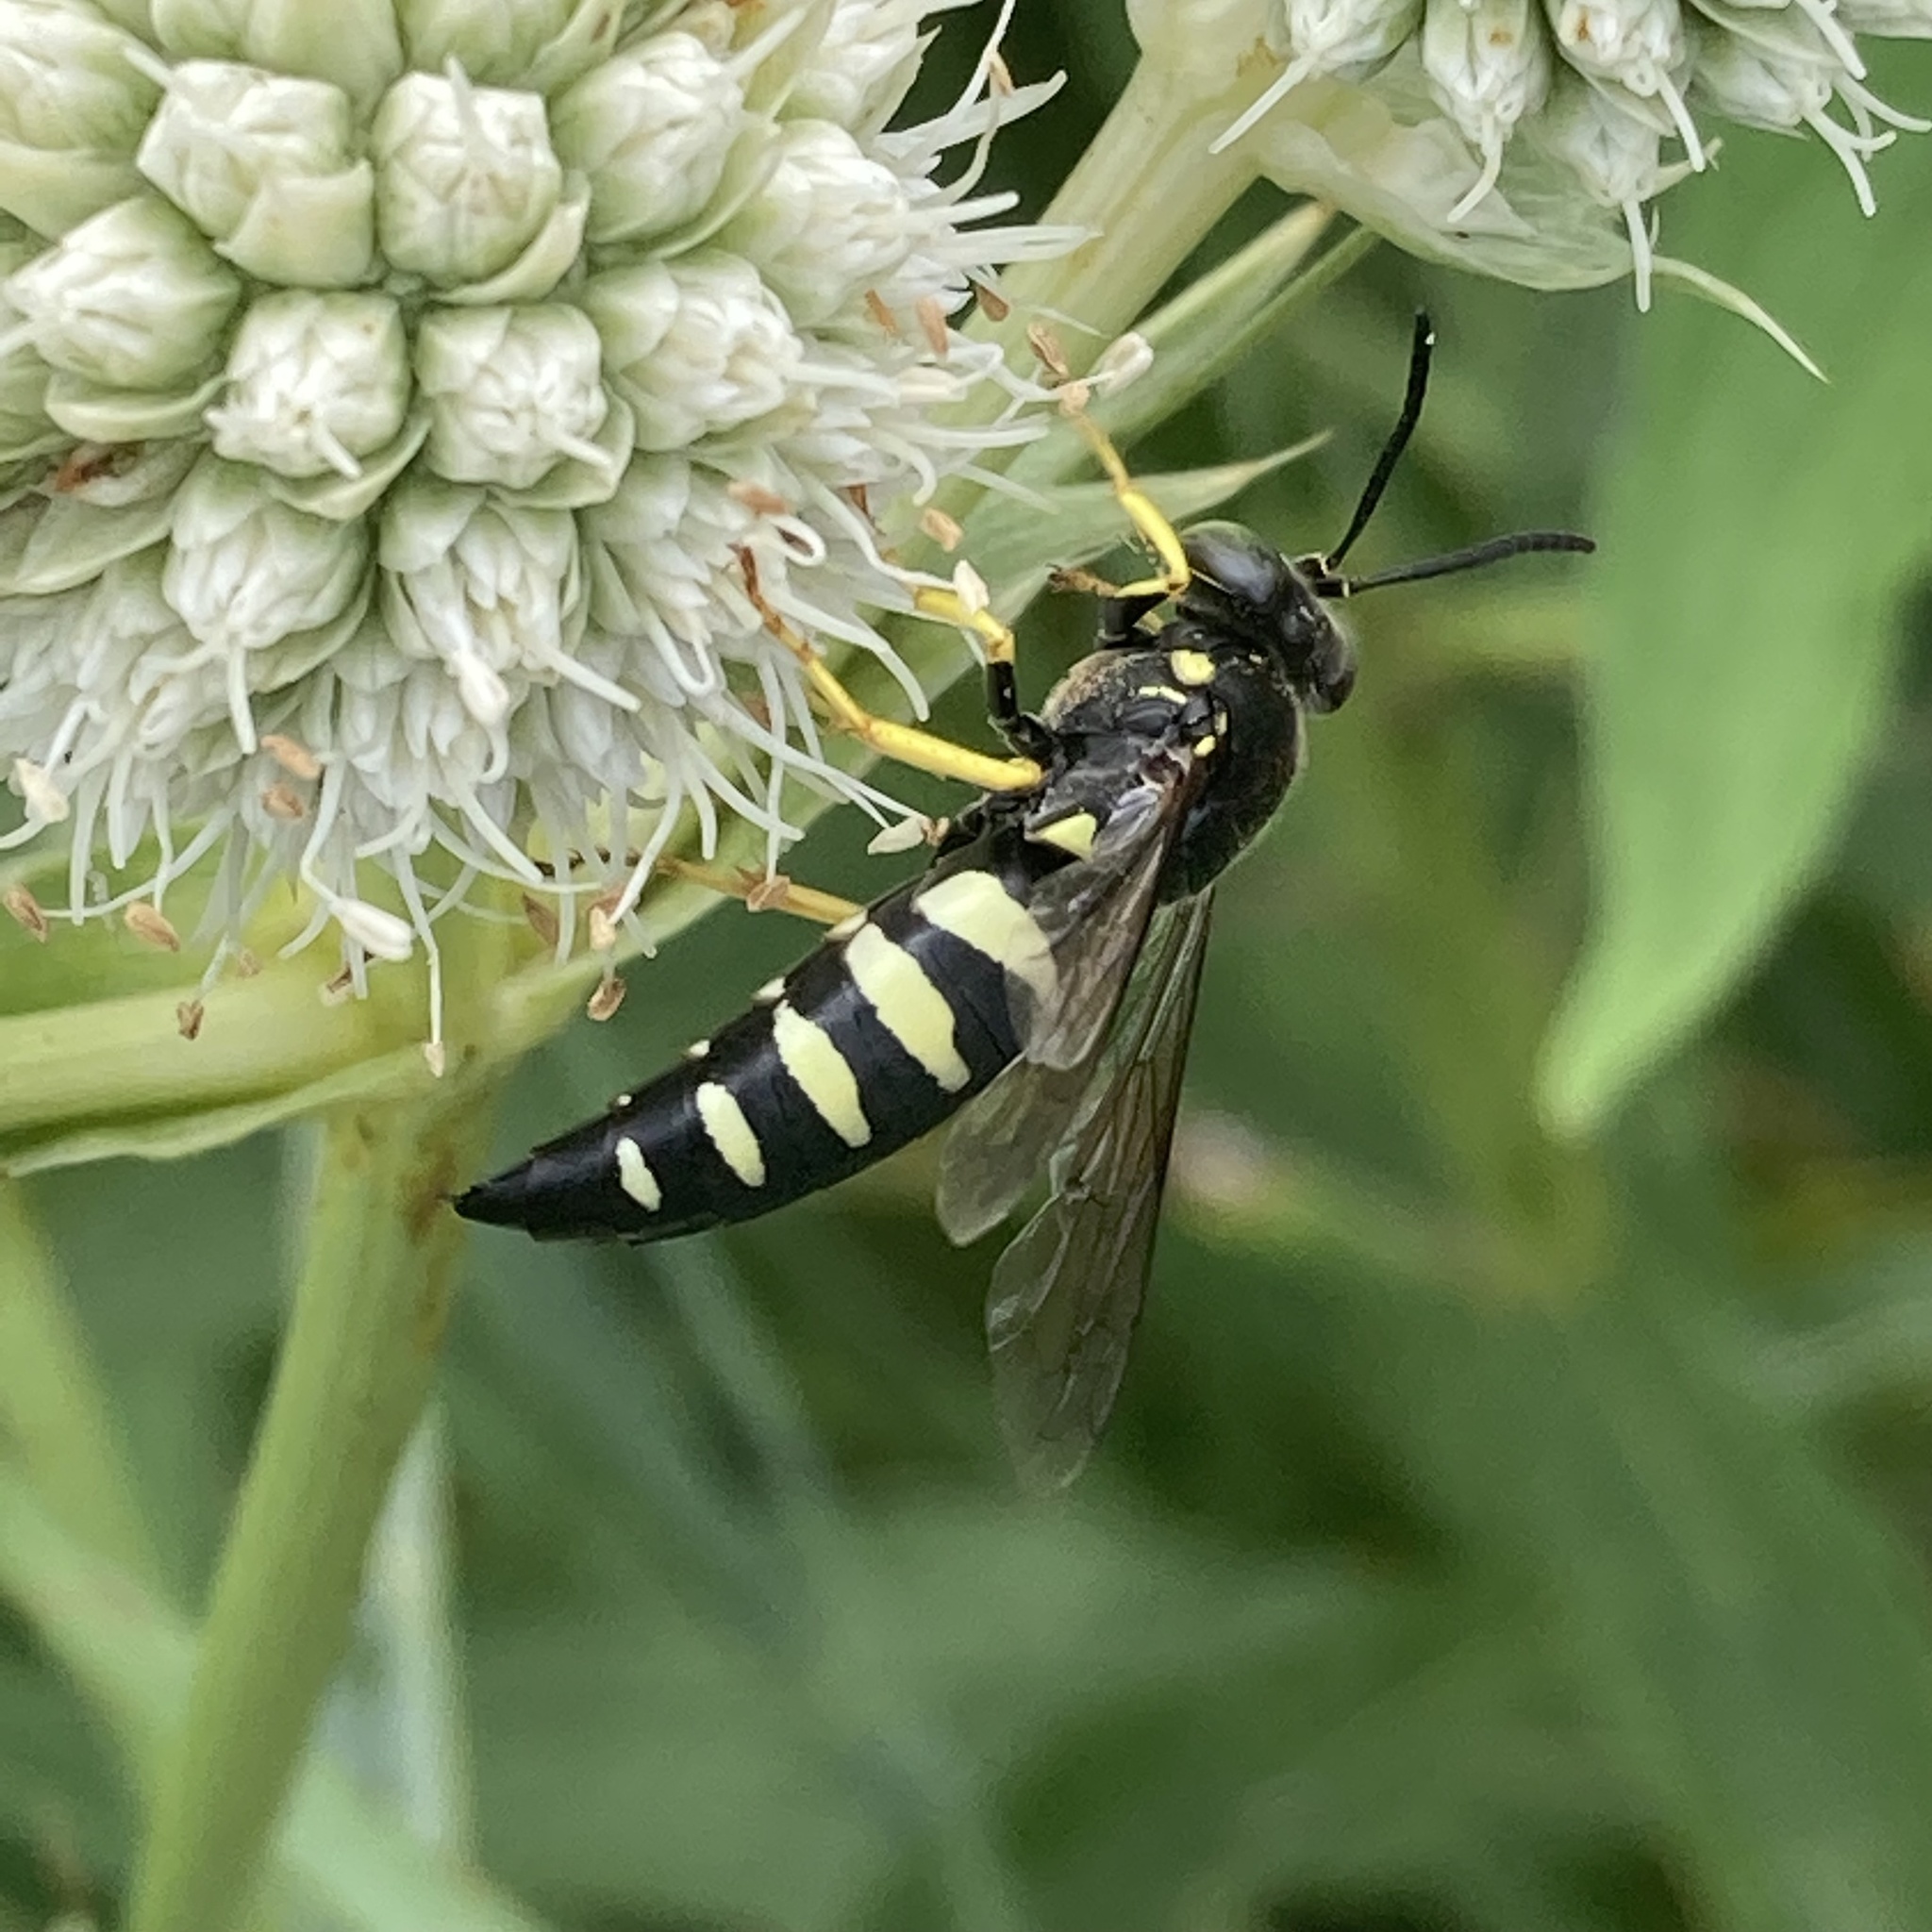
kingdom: Animalia
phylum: Arthropoda
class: Insecta
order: Hymenoptera
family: Crabronidae
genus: Bicyrtes
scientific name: Bicyrtes quadrifasciatus
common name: Four-banded stink bug hunter wasp
